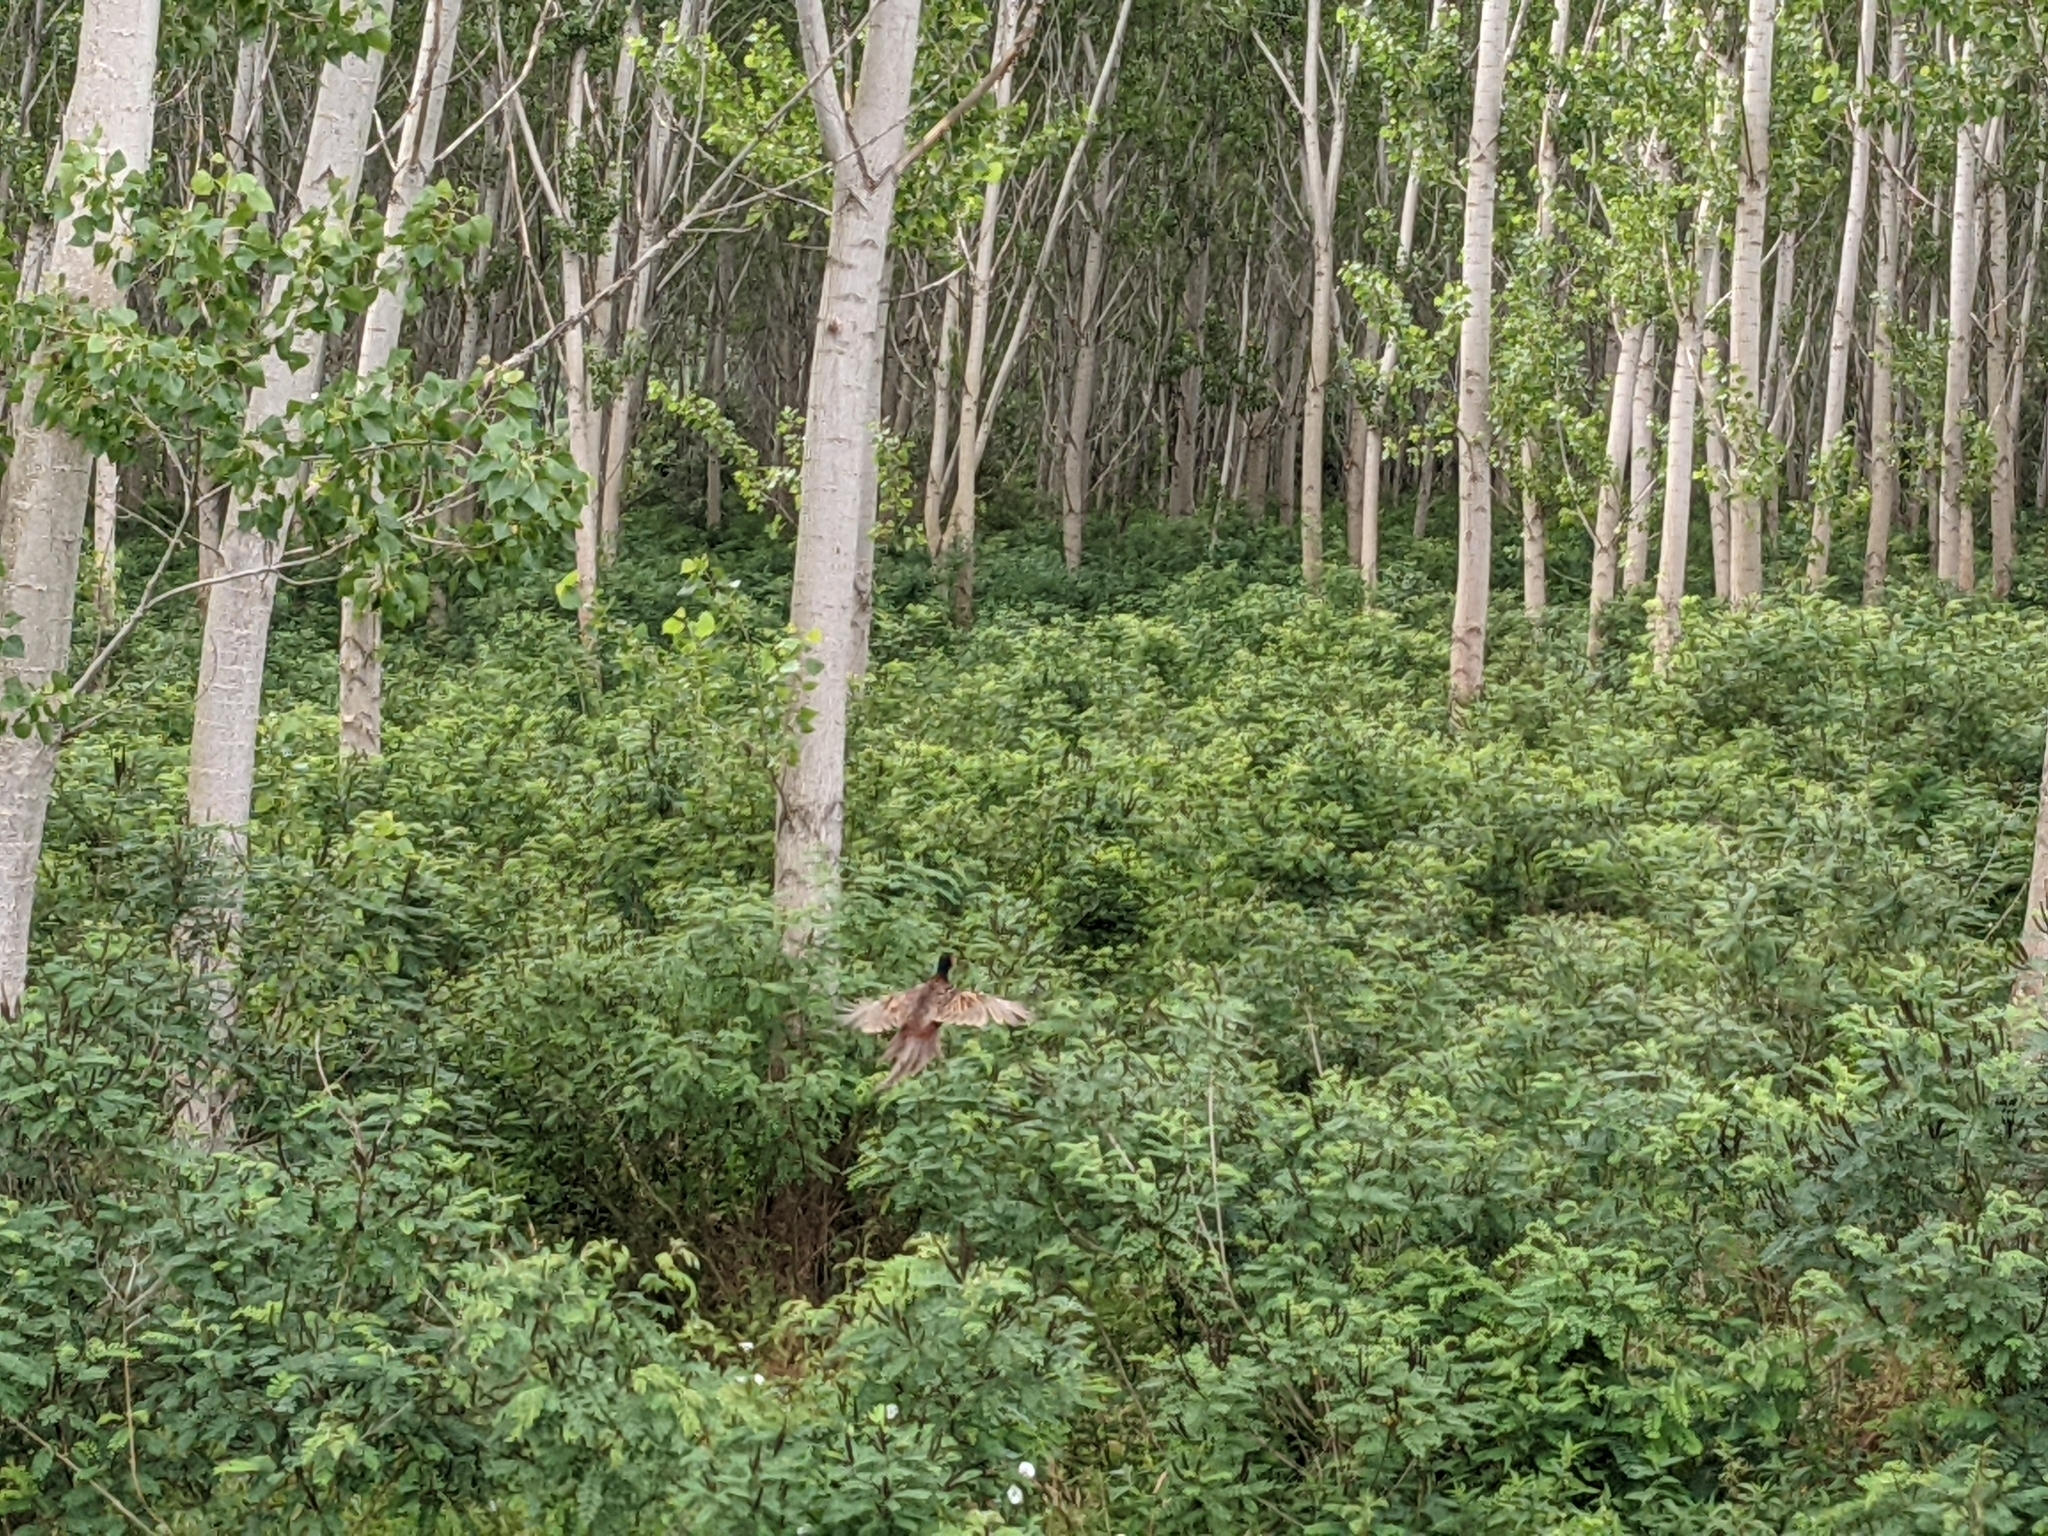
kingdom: Animalia
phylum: Chordata
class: Aves
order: Galliformes
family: Phasianidae
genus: Phasianus
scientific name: Phasianus colchicus
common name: Common pheasant
